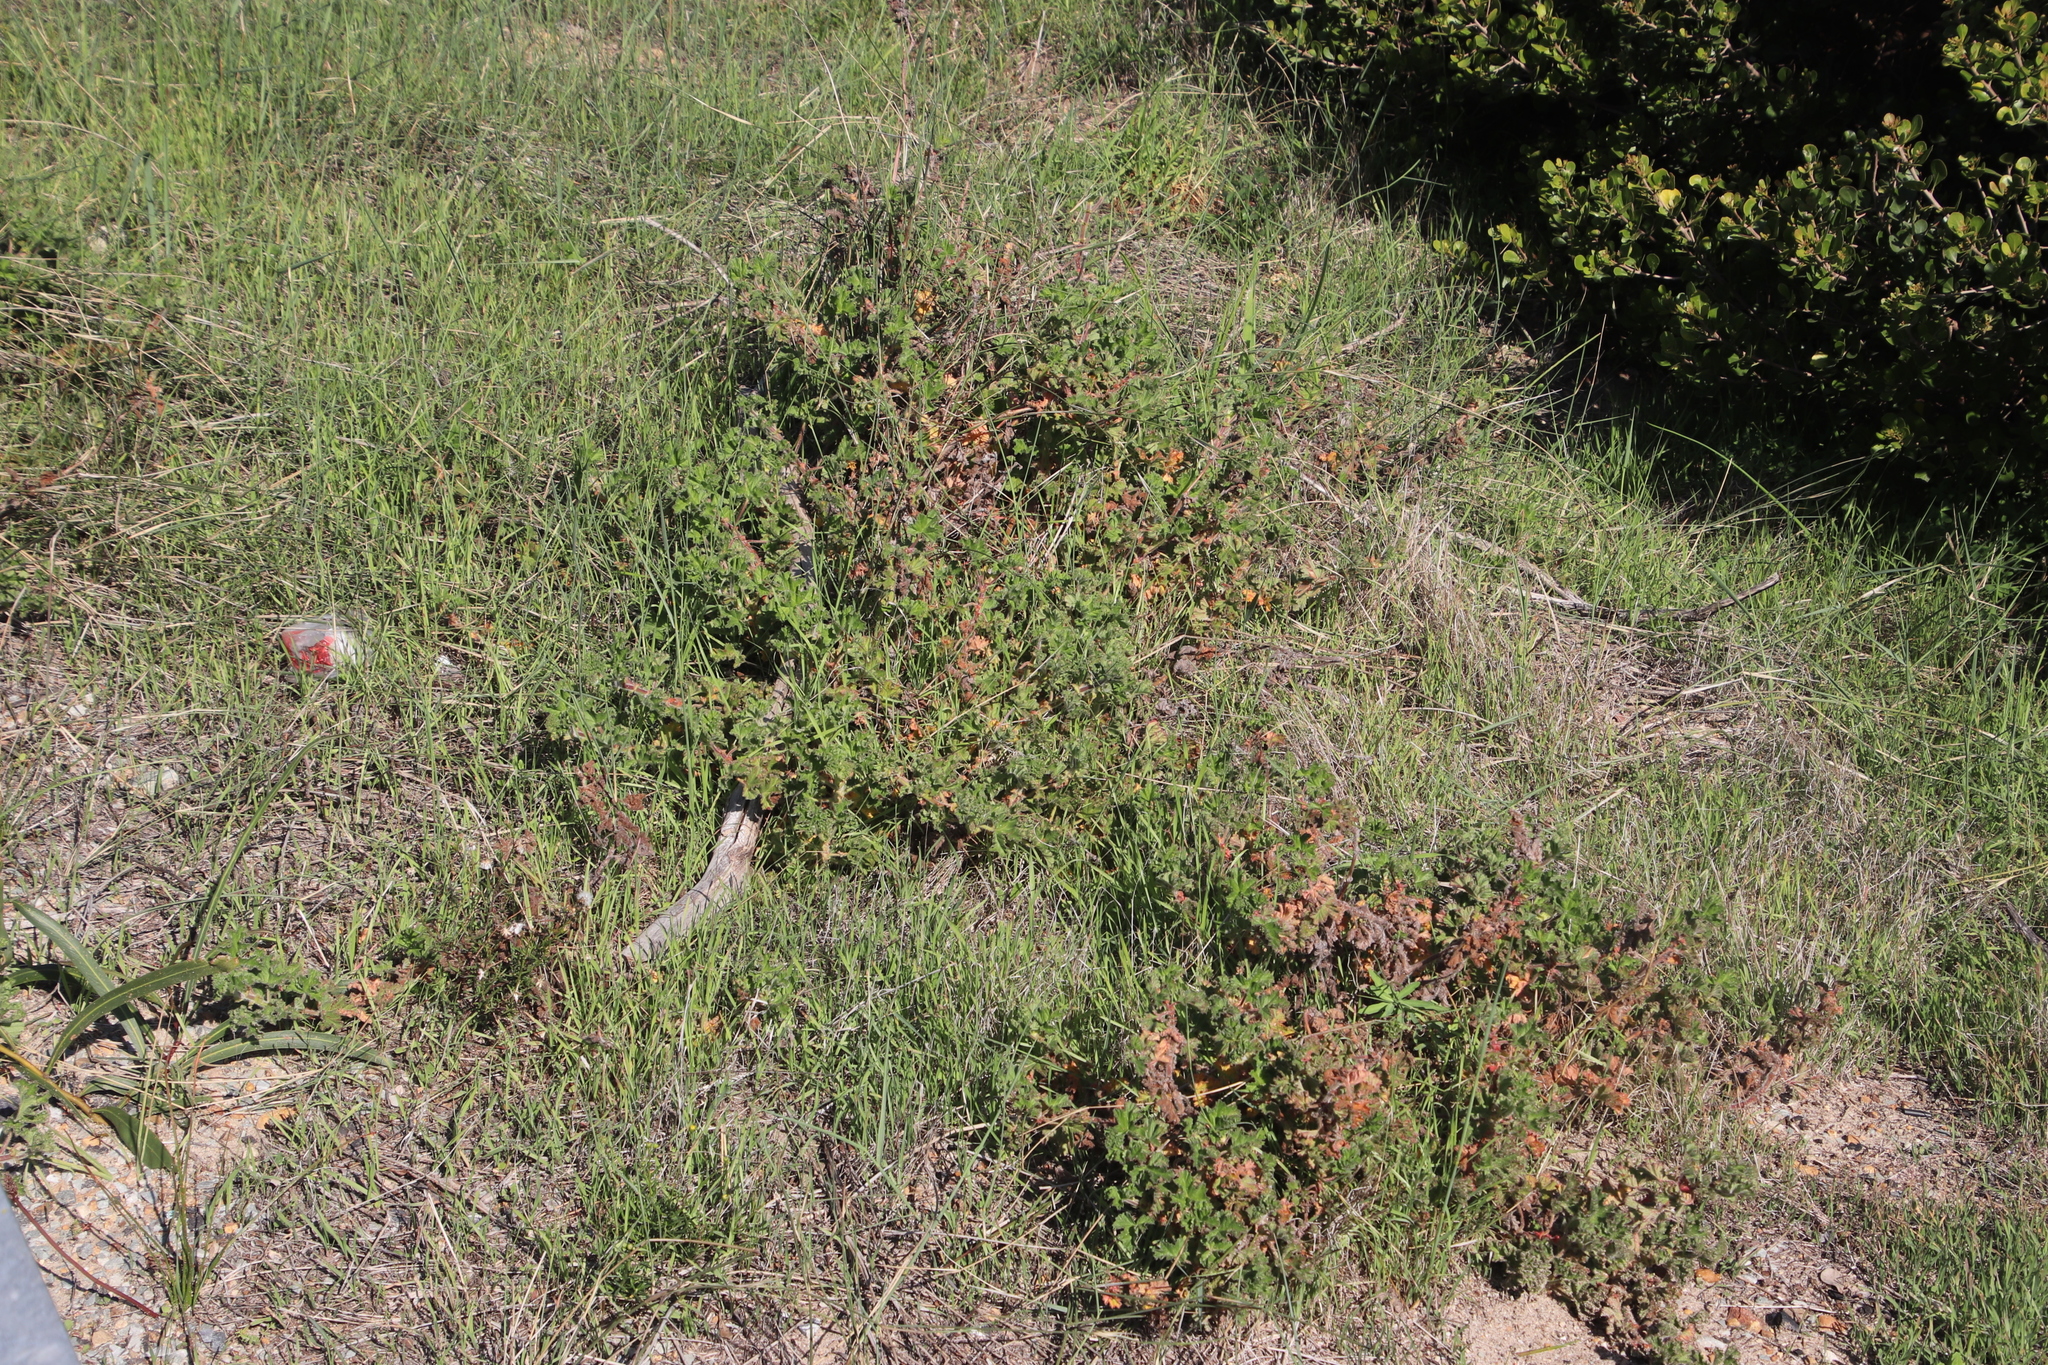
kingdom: Plantae
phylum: Tracheophyta
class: Magnoliopsida
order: Geraniales
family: Geraniaceae
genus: Pelargonium
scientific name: Pelargonium capitatum
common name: Rose scented geranium
